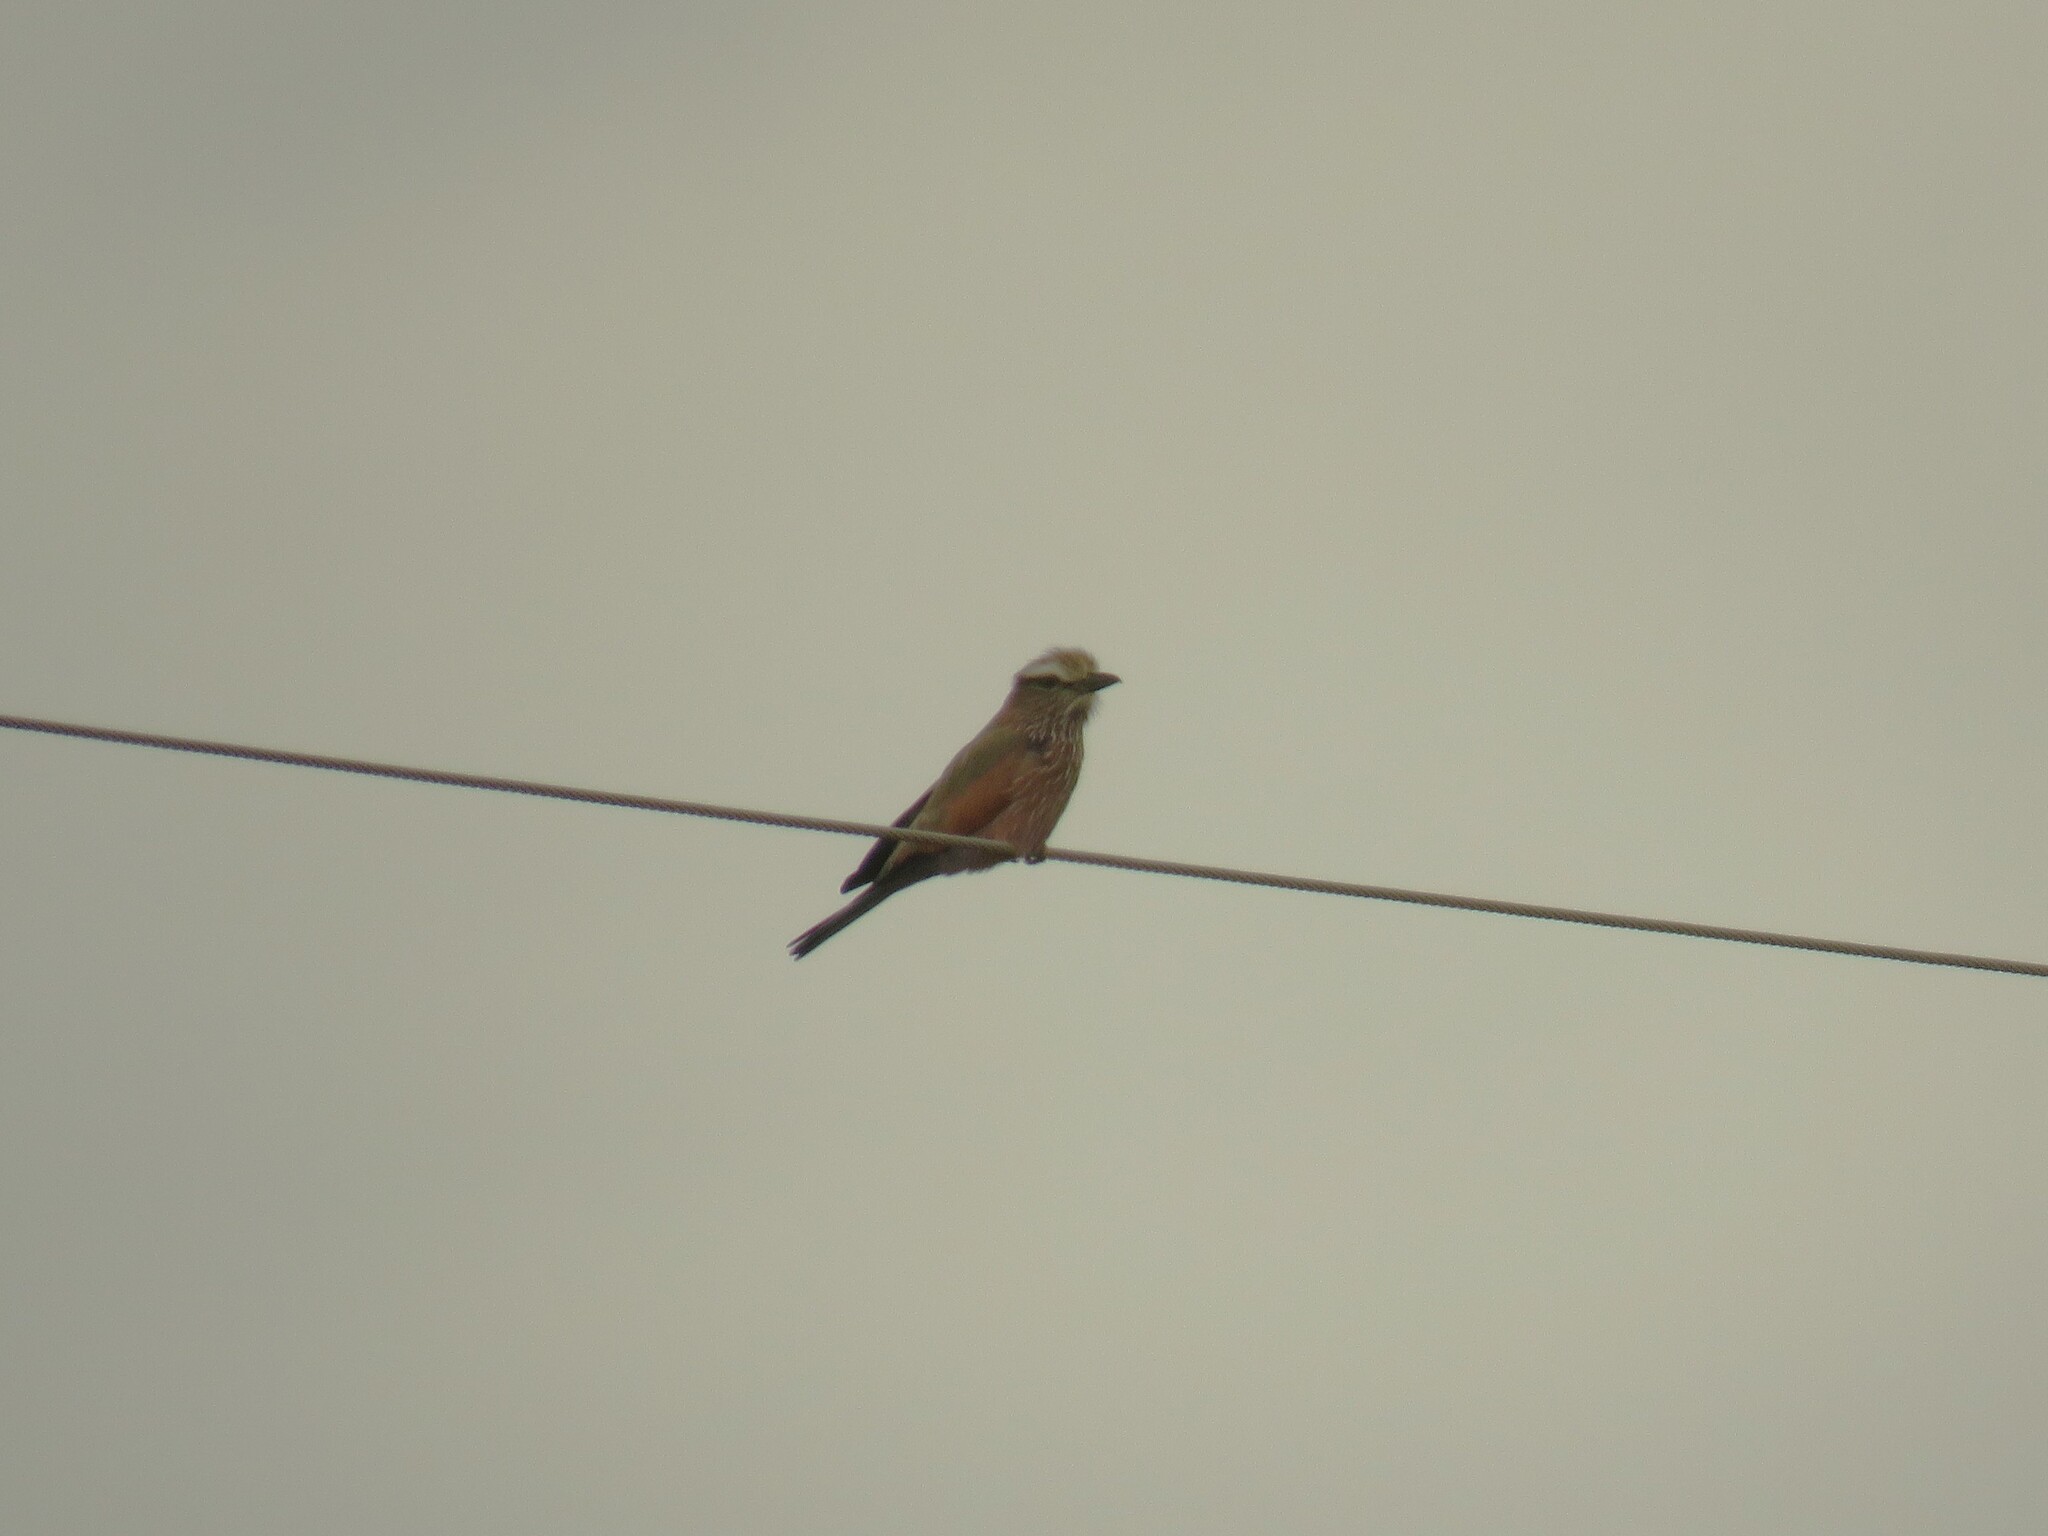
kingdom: Animalia
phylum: Chordata
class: Aves
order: Coraciiformes
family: Coraciidae
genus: Coracias
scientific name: Coracias naevius
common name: Purple roller
